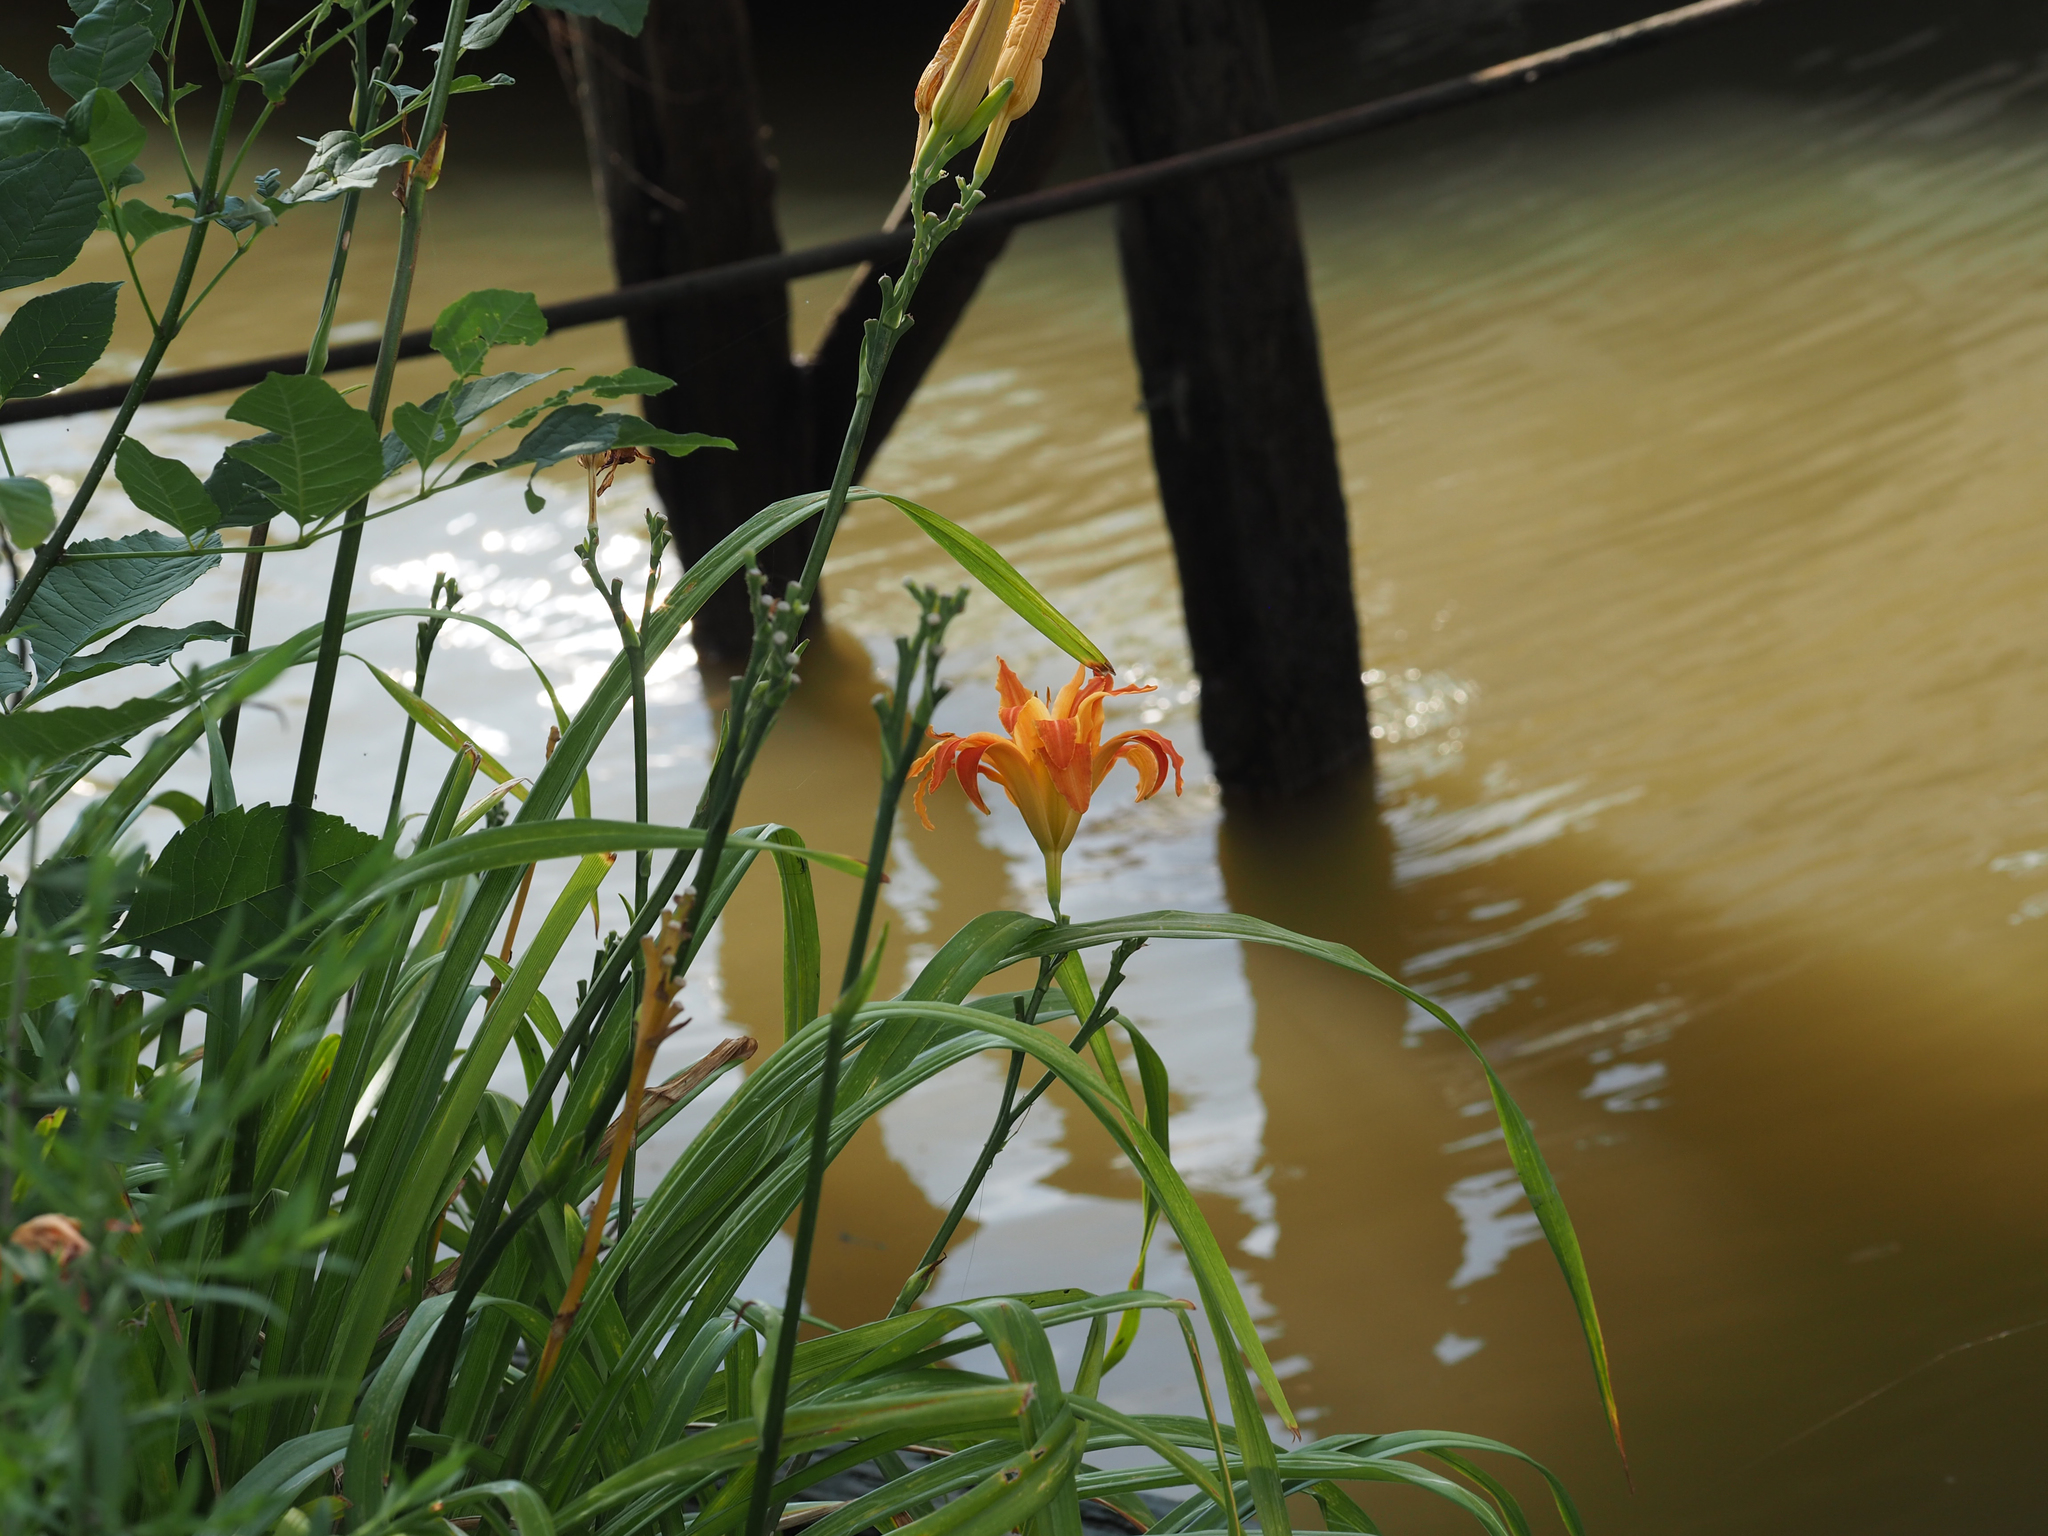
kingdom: Plantae
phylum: Tracheophyta
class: Liliopsida
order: Asparagales
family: Asphodelaceae
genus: Hemerocallis
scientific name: Hemerocallis fulva
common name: Orange day-lily
